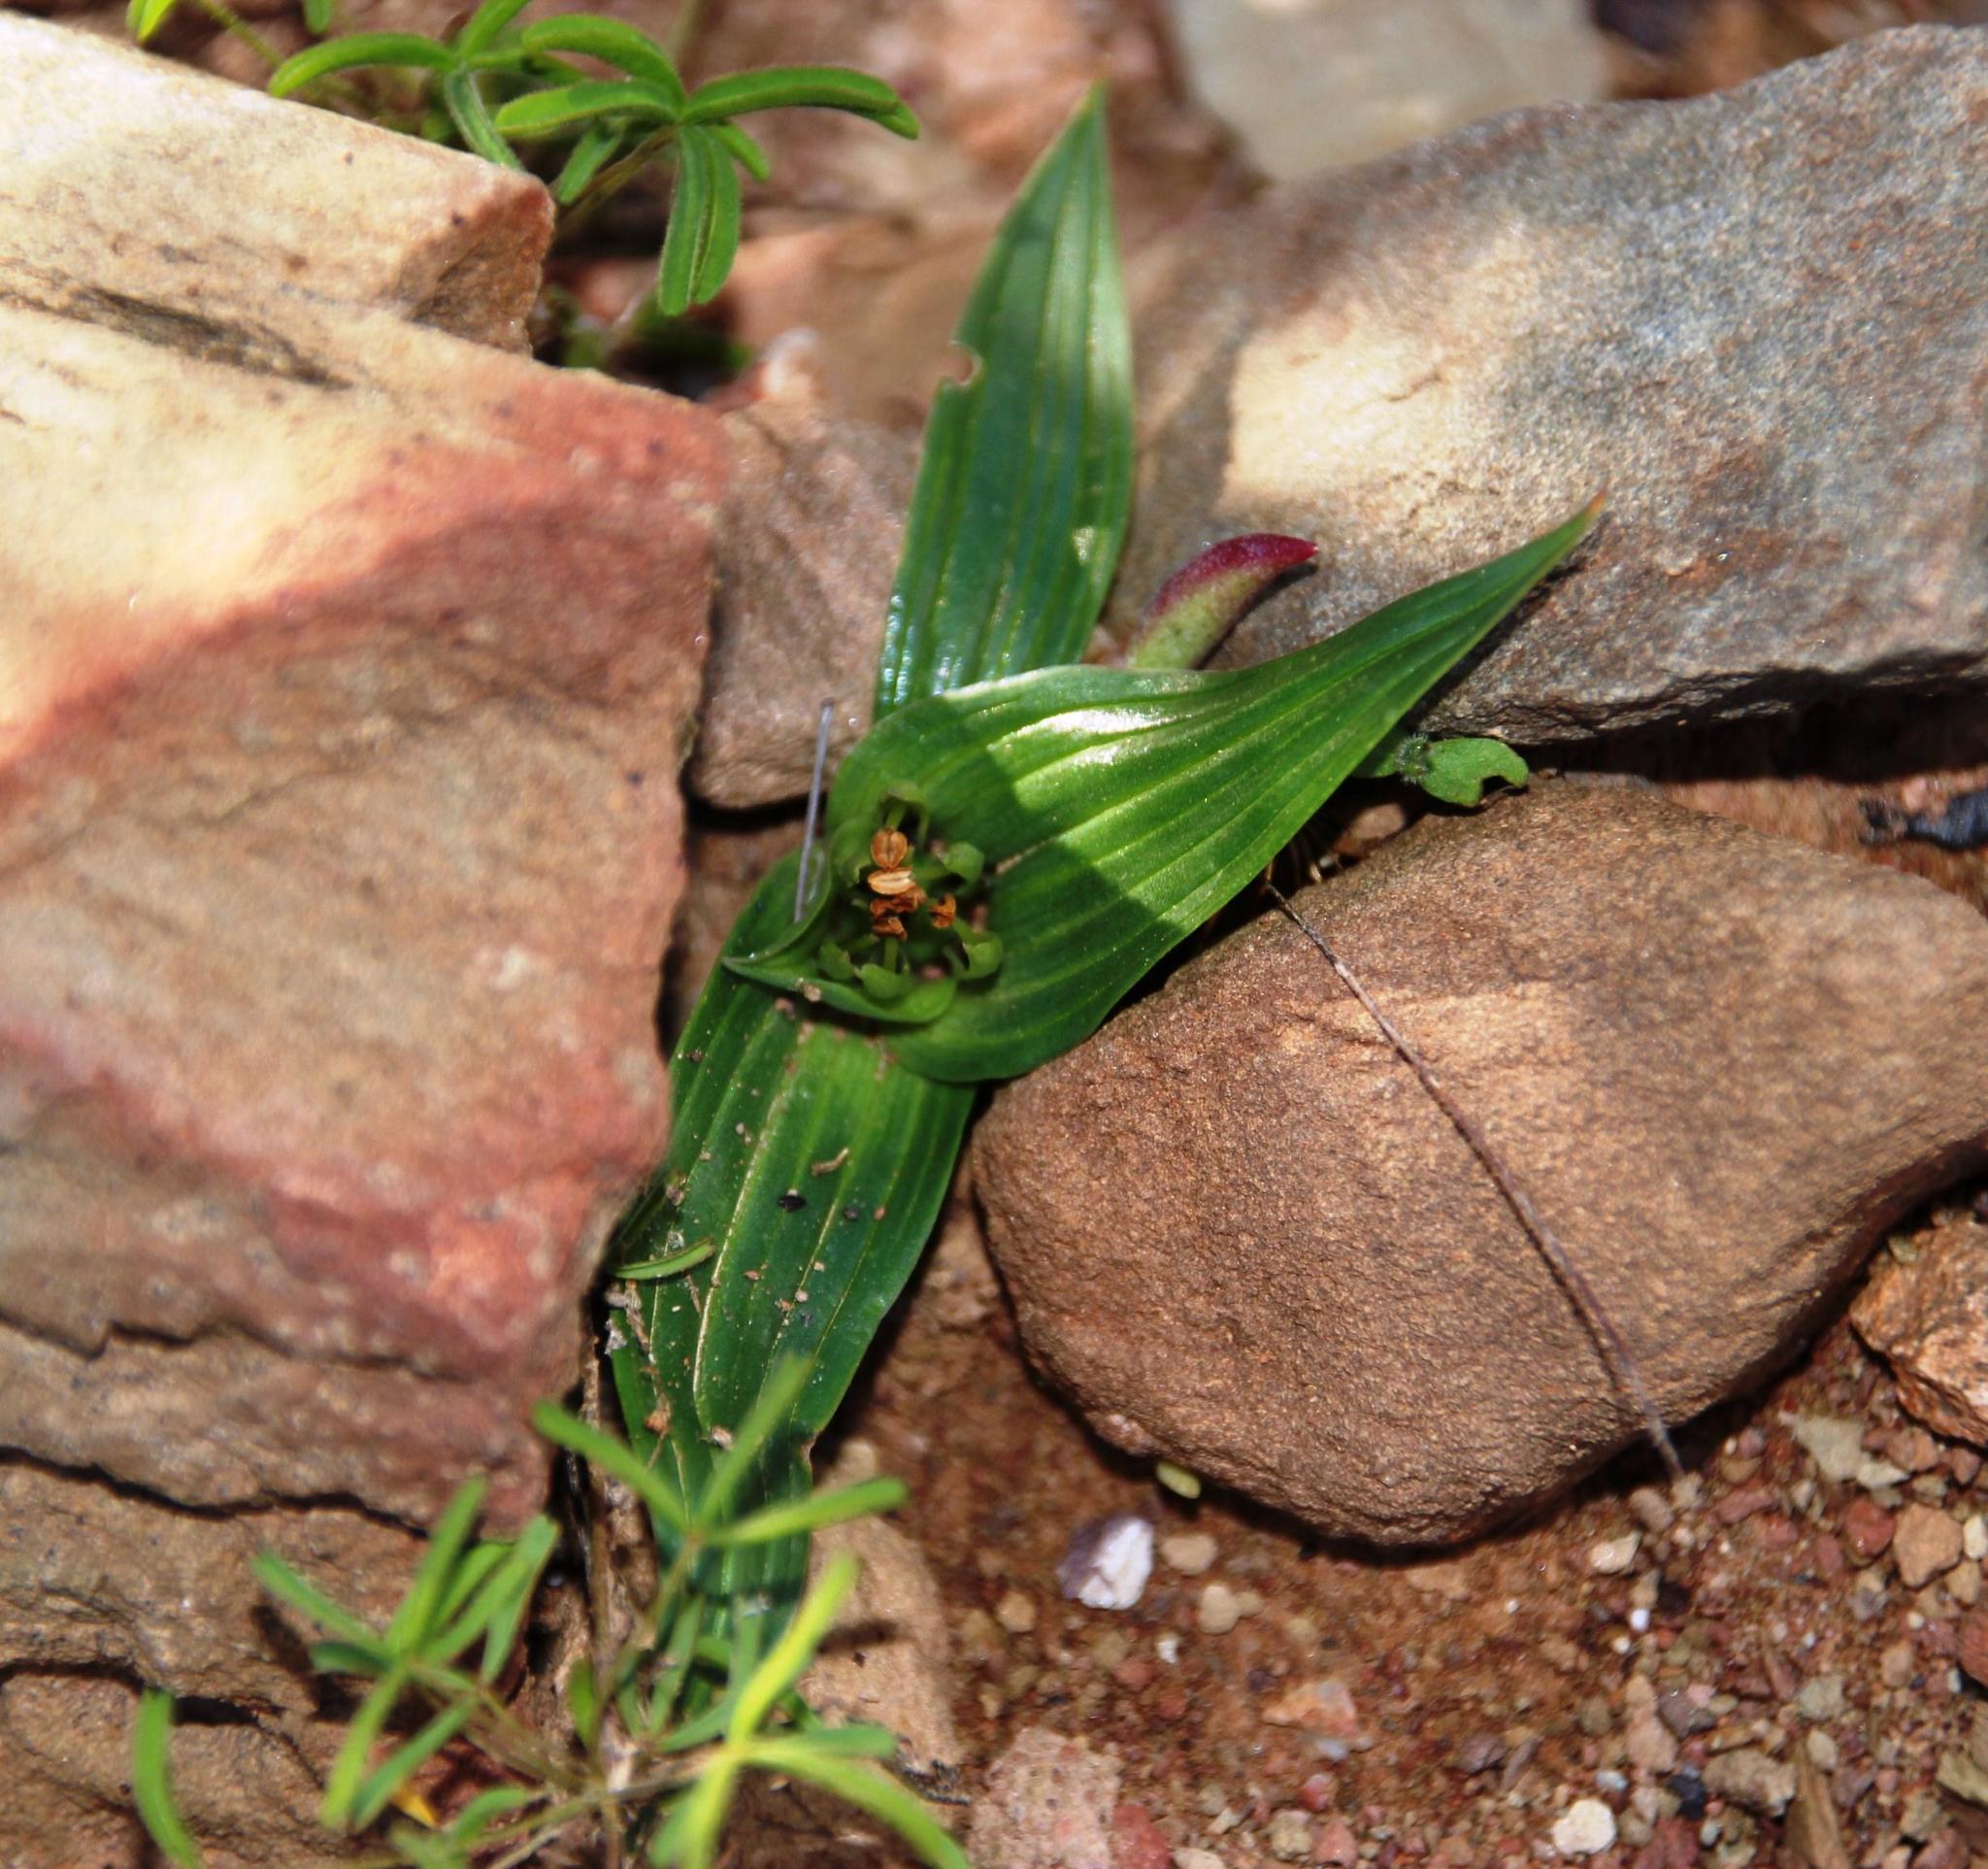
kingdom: Plantae
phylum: Tracheophyta
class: Liliopsida
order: Liliales
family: Colchicaceae
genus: Colchicum
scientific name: Colchicum eucomoides
